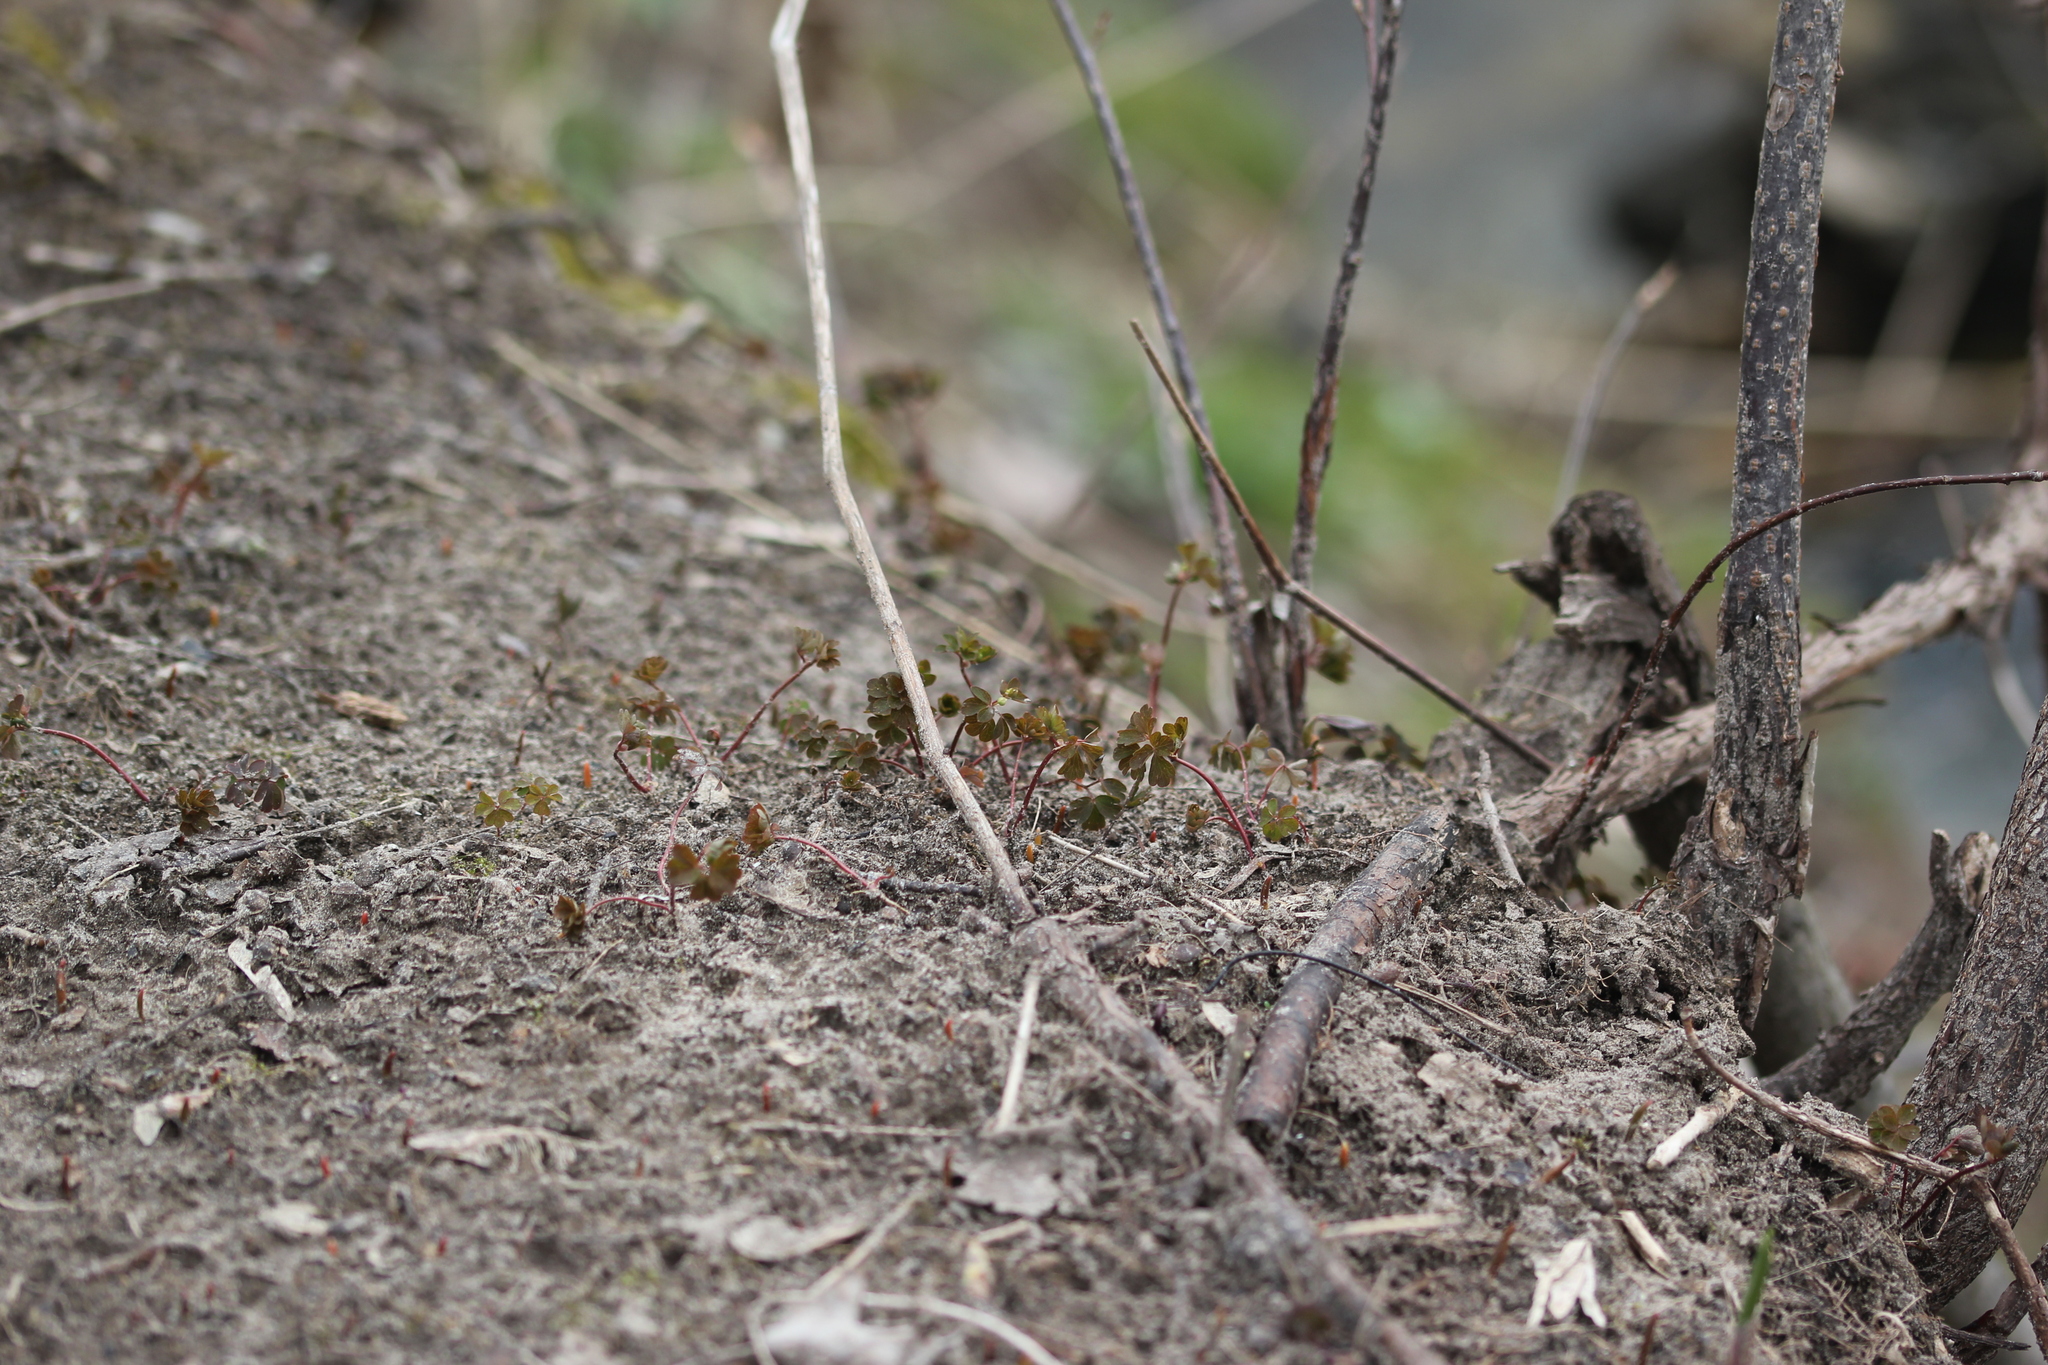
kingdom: Plantae
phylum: Tracheophyta
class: Magnoliopsida
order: Ranunculales
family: Ranunculaceae
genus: Enemion
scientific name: Enemion biternatum
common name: Eastern false rue-anemone
